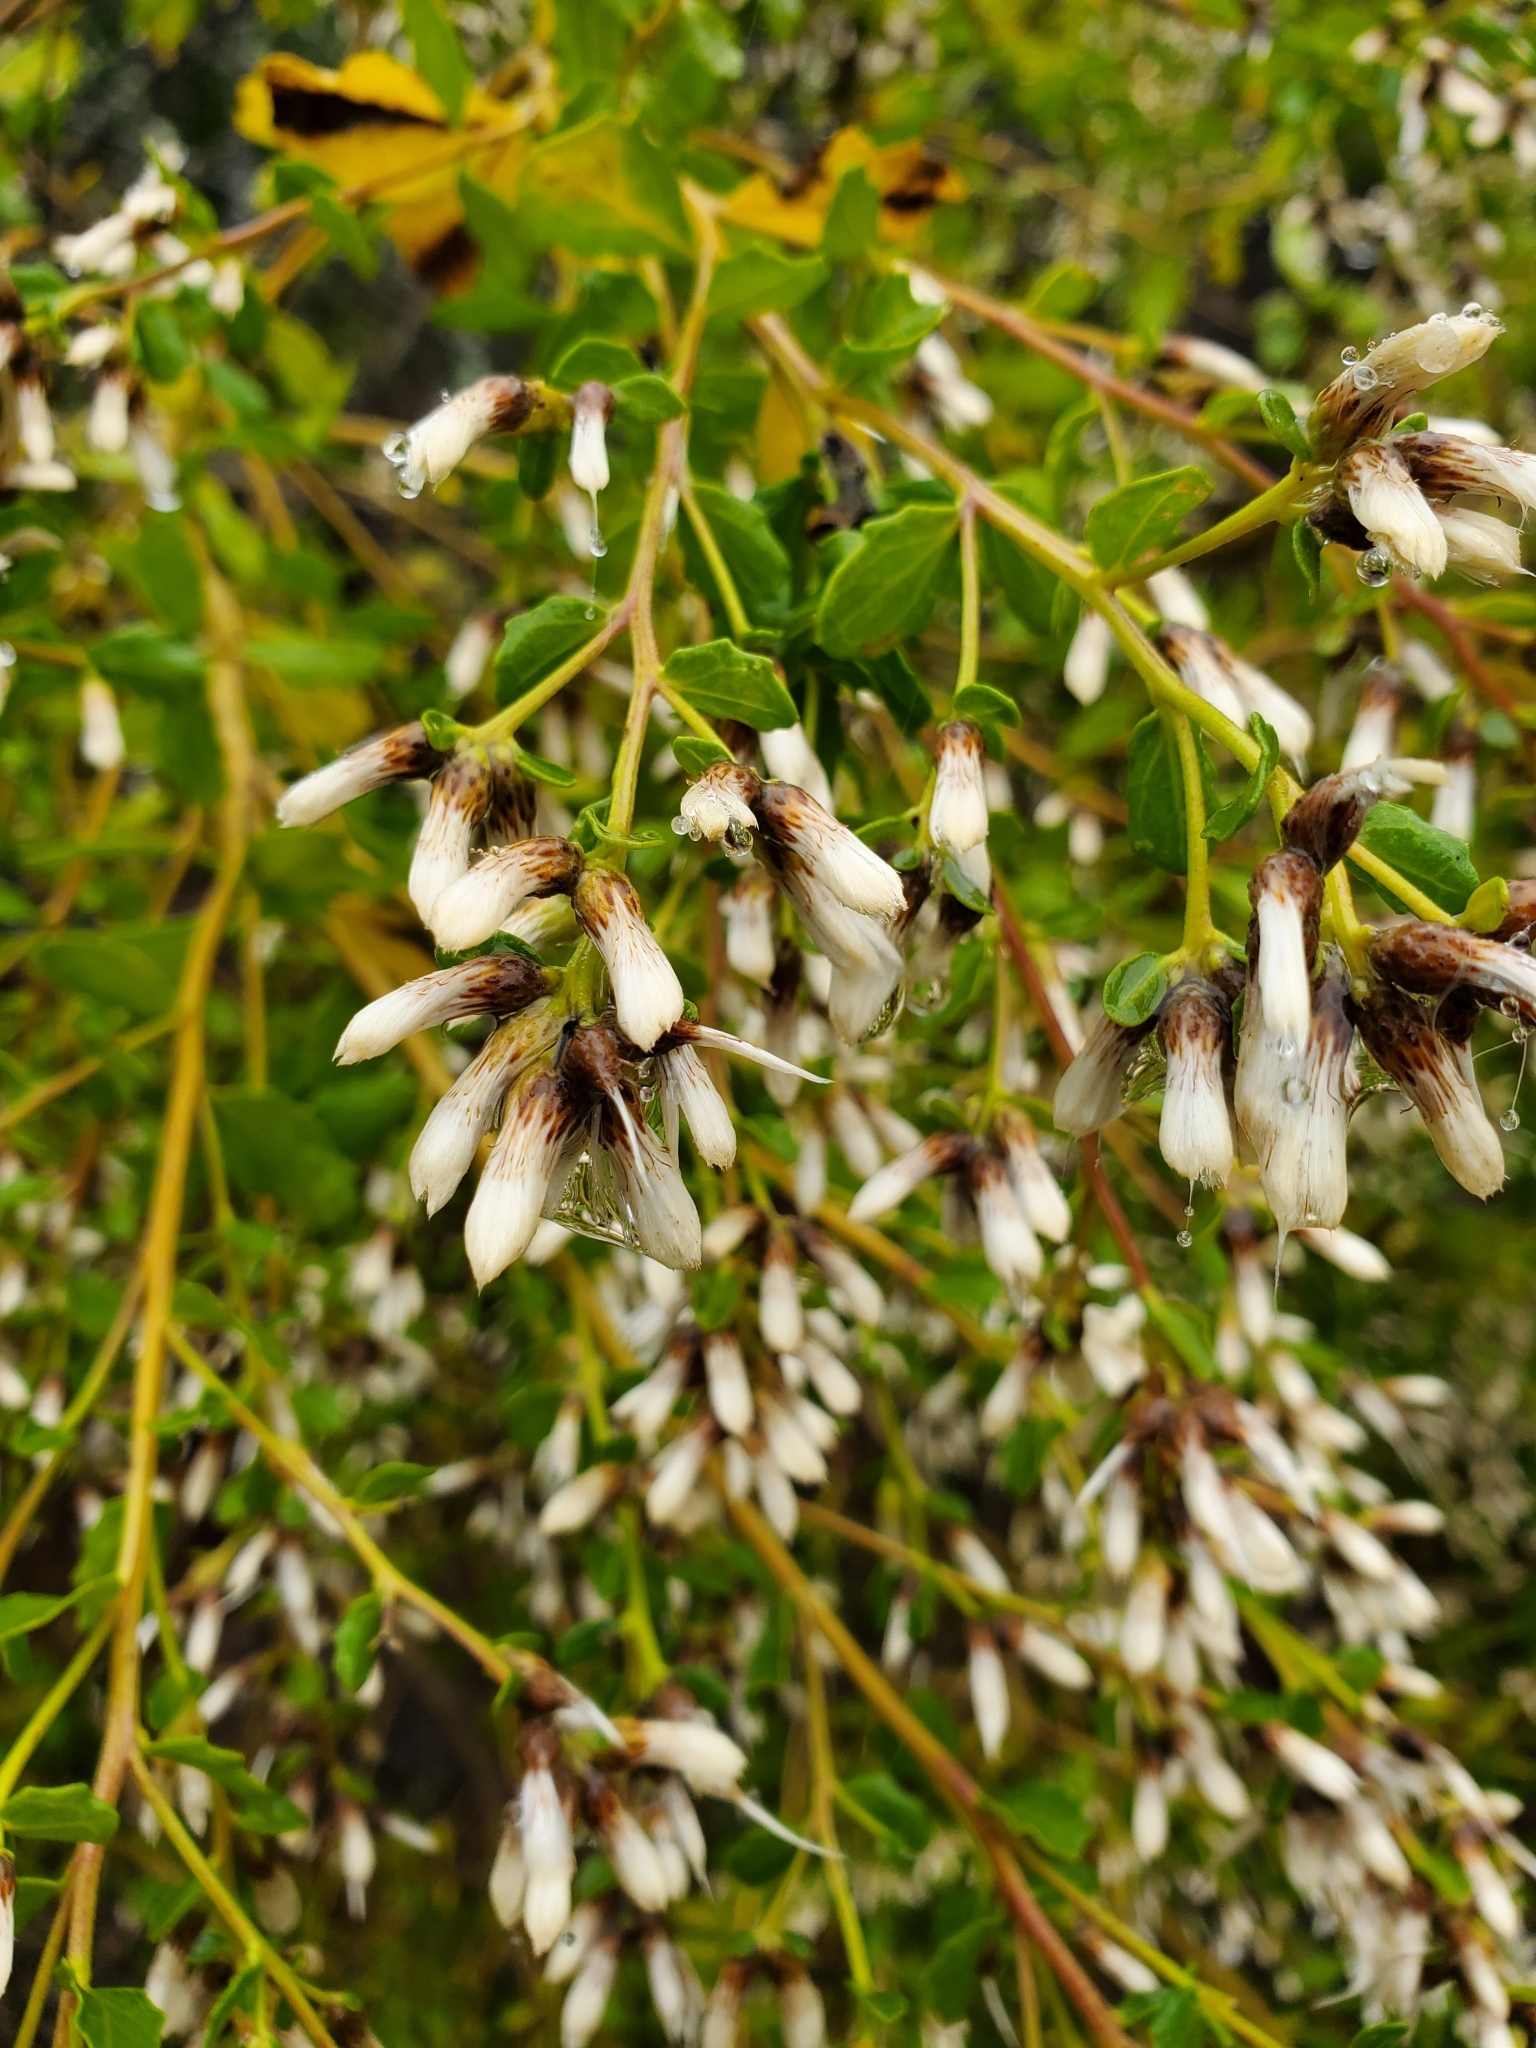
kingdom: Plantae
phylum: Tracheophyta
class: Magnoliopsida
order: Asterales
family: Asteraceae
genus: Baccharis
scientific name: Baccharis pilularis
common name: Coyotebrush
